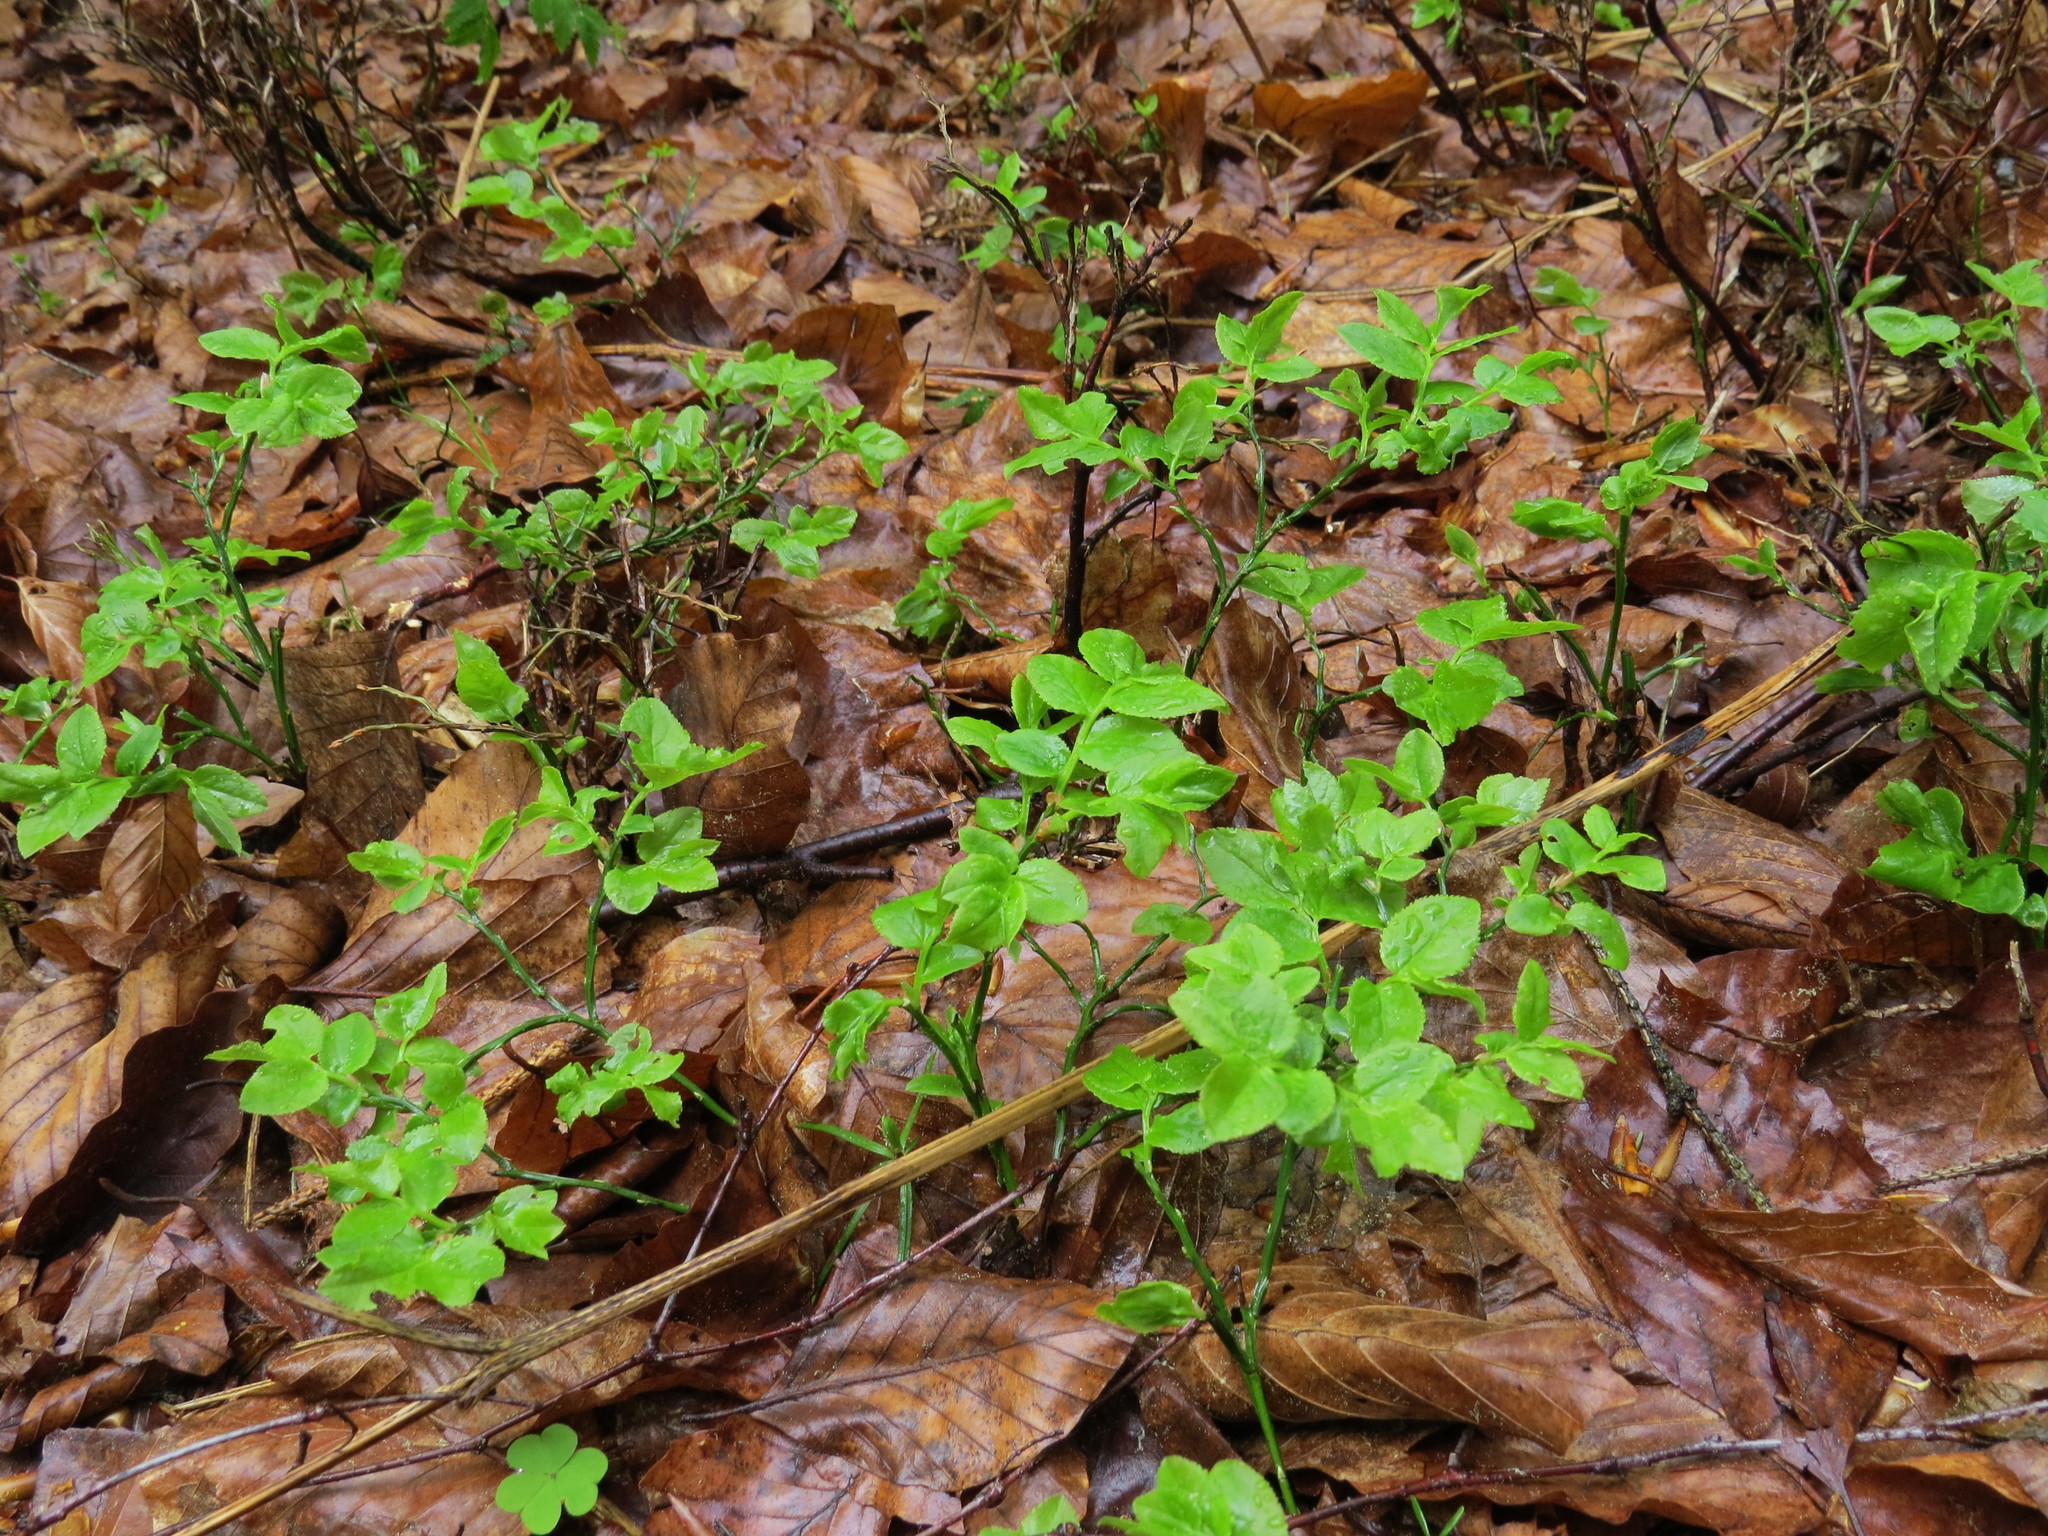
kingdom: Plantae
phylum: Tracheophyta
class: Magnoliopsida
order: Ericales
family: Ericaceae
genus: Vaccinium
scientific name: Vaccinium myrtillus
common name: Bilberry
